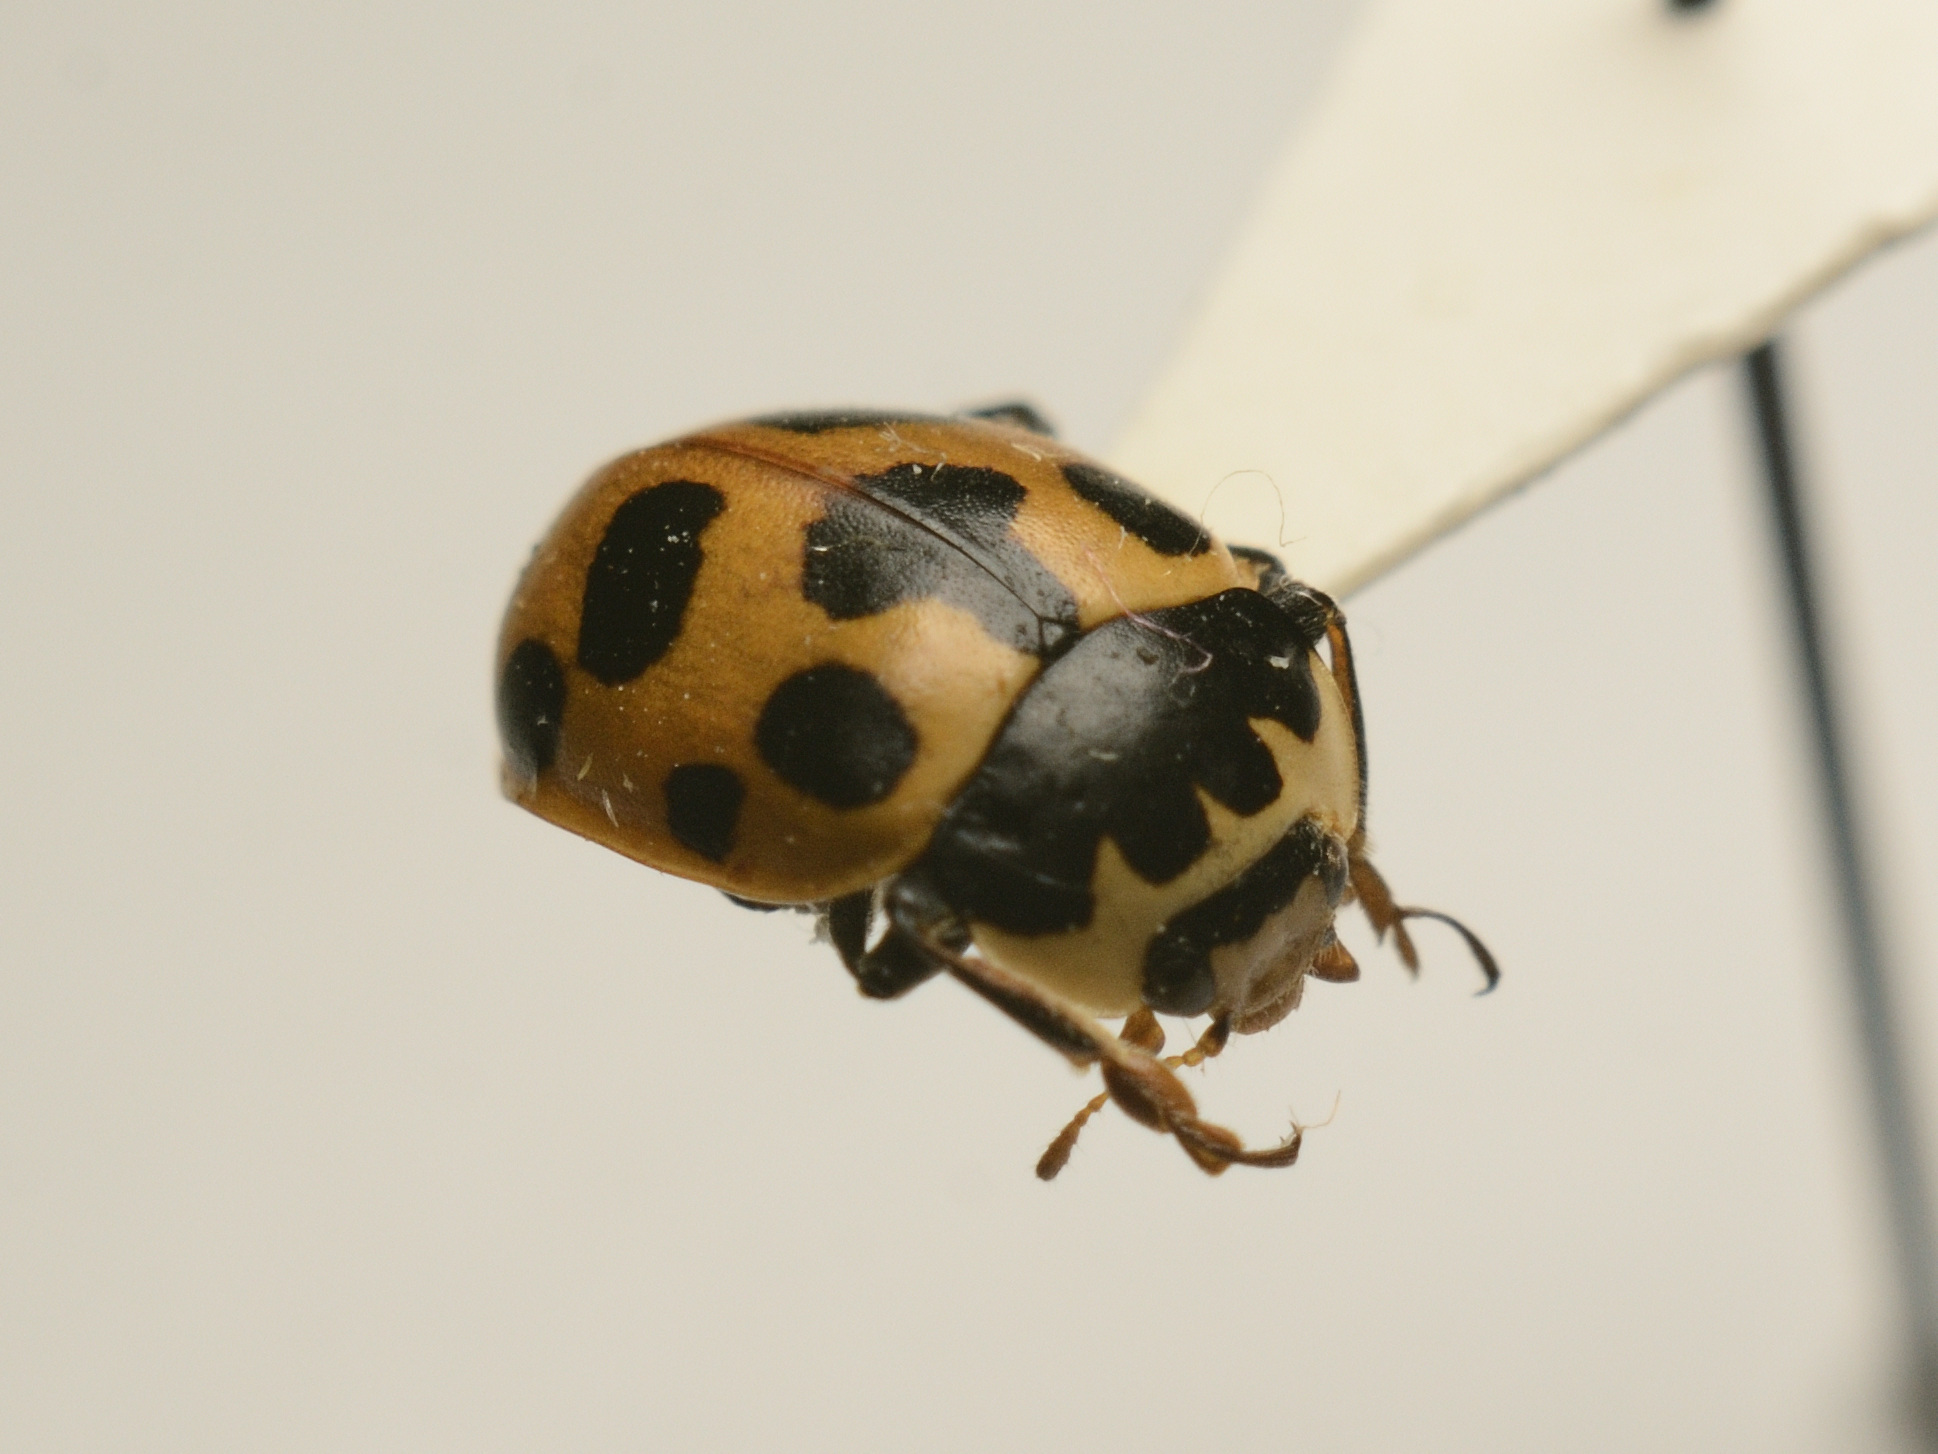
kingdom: Animalia
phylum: Arthropoda
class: Insecta
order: Coleoptera
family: Coccinellidae
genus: Ceratomegilla
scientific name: Ceratomegilla notata
